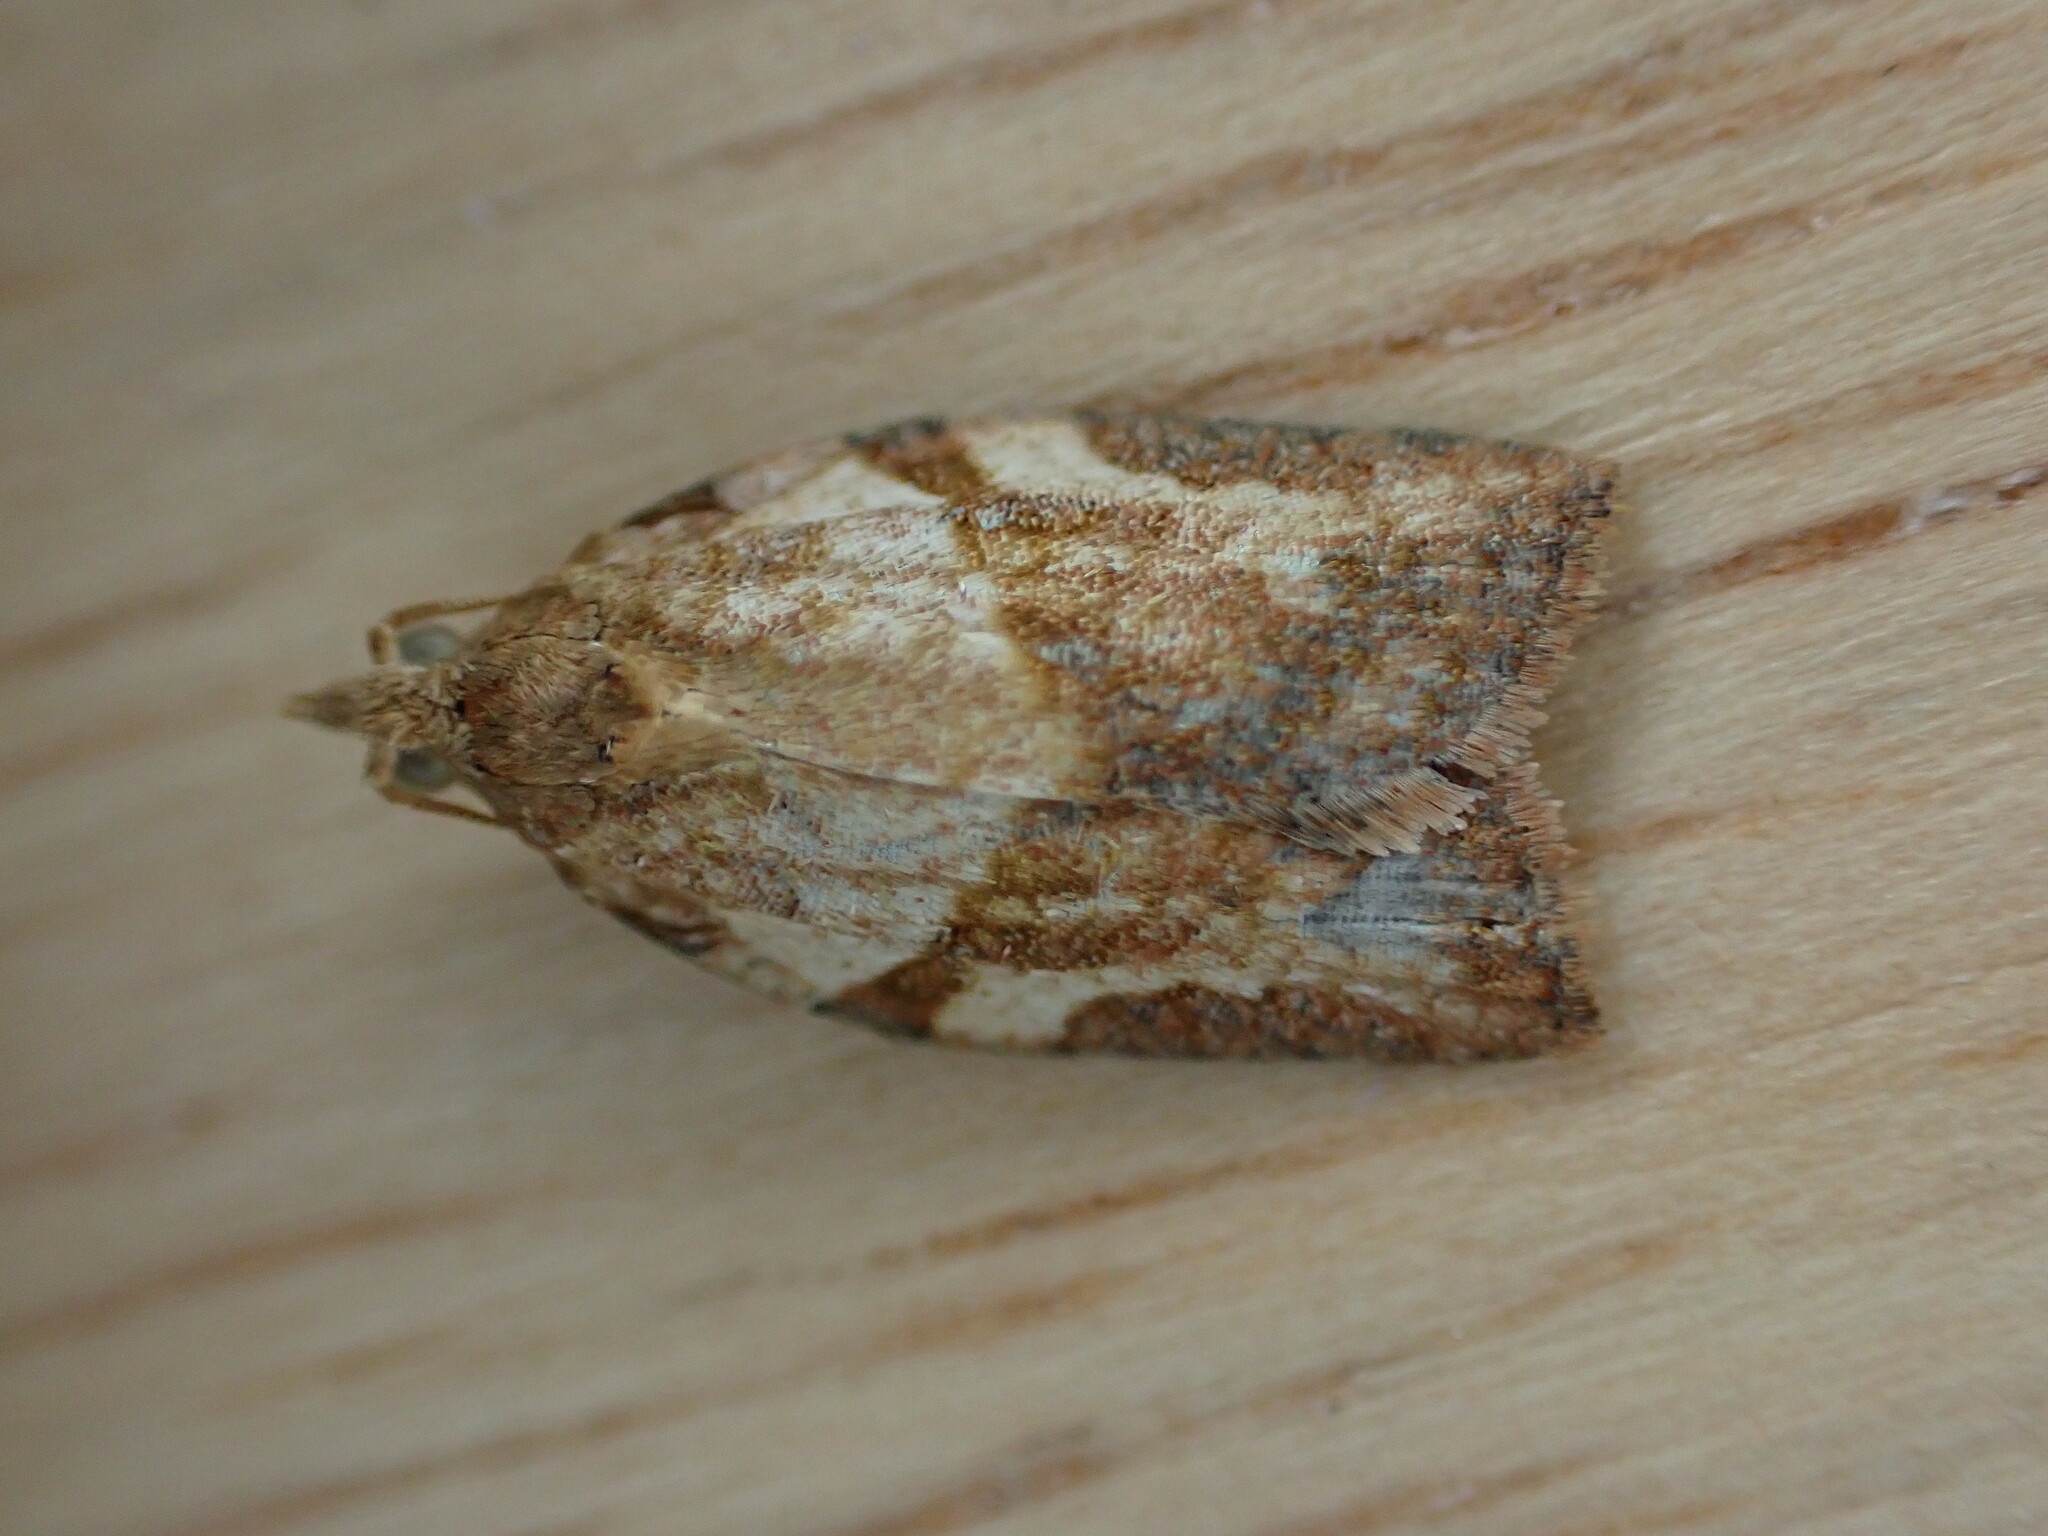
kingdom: Animalia
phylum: Arthropoda
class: Insecta
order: Lepidoptera
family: Tortricidae
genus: Epiphyas
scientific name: Epiphyas postvittana
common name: Light brown apple moth
